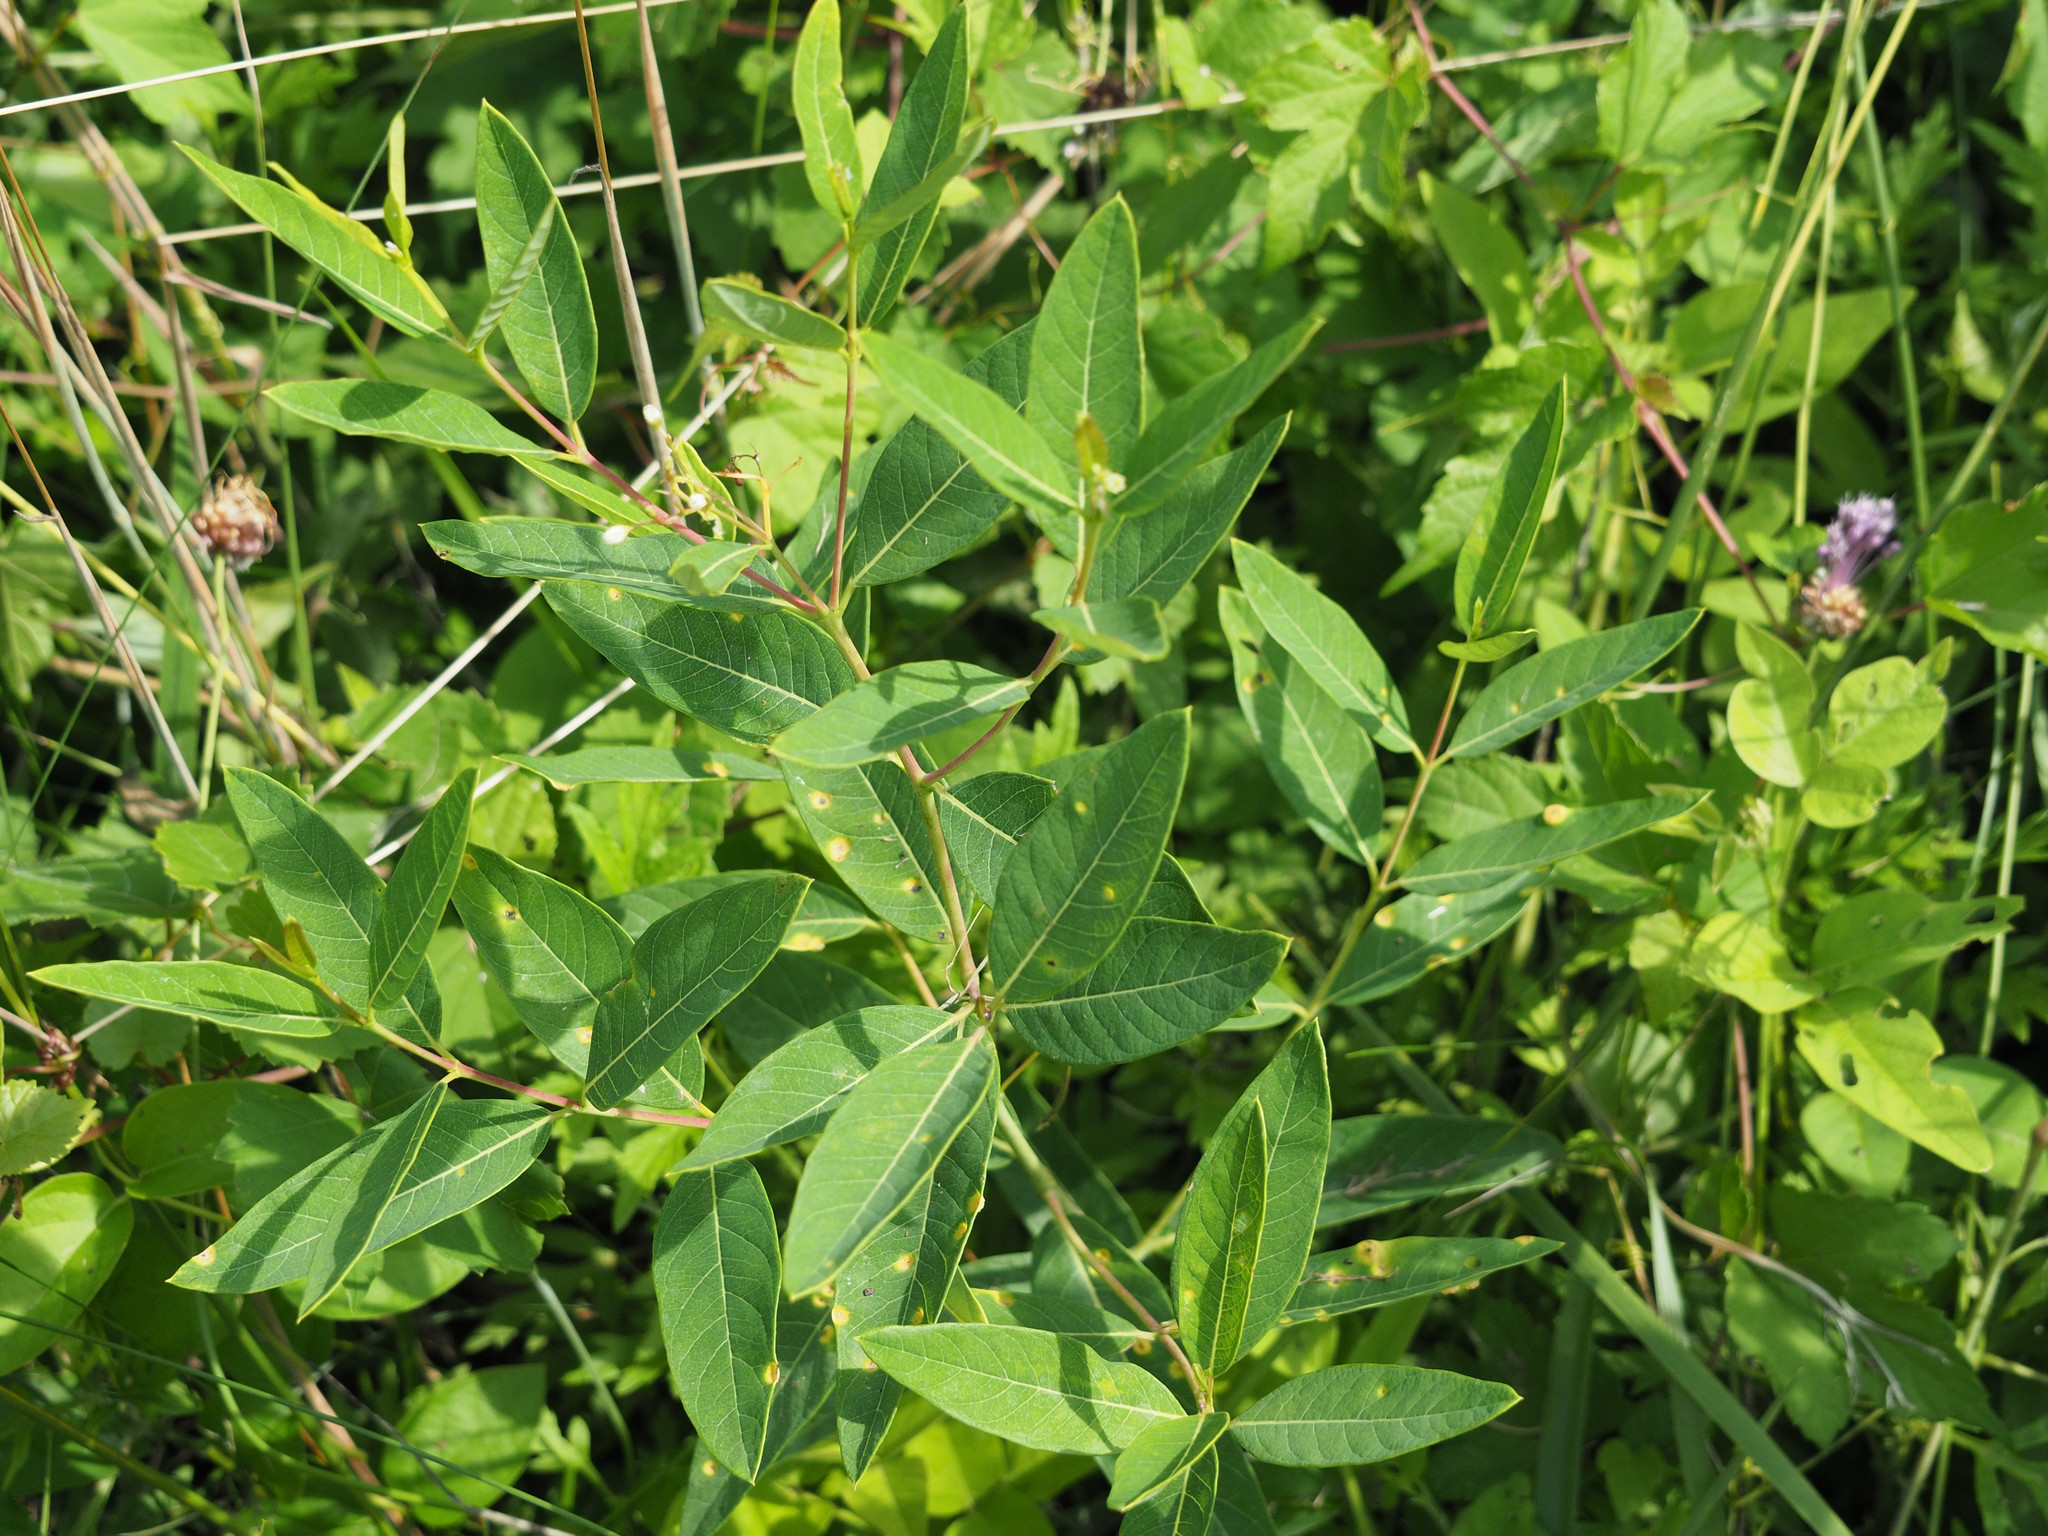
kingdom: Plantae
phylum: Tracheophyta
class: Magnoliopsida
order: Gentianales
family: Apocynaceae
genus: Apocynum
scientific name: Apocynum cannabinum
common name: Hemp dogbane
